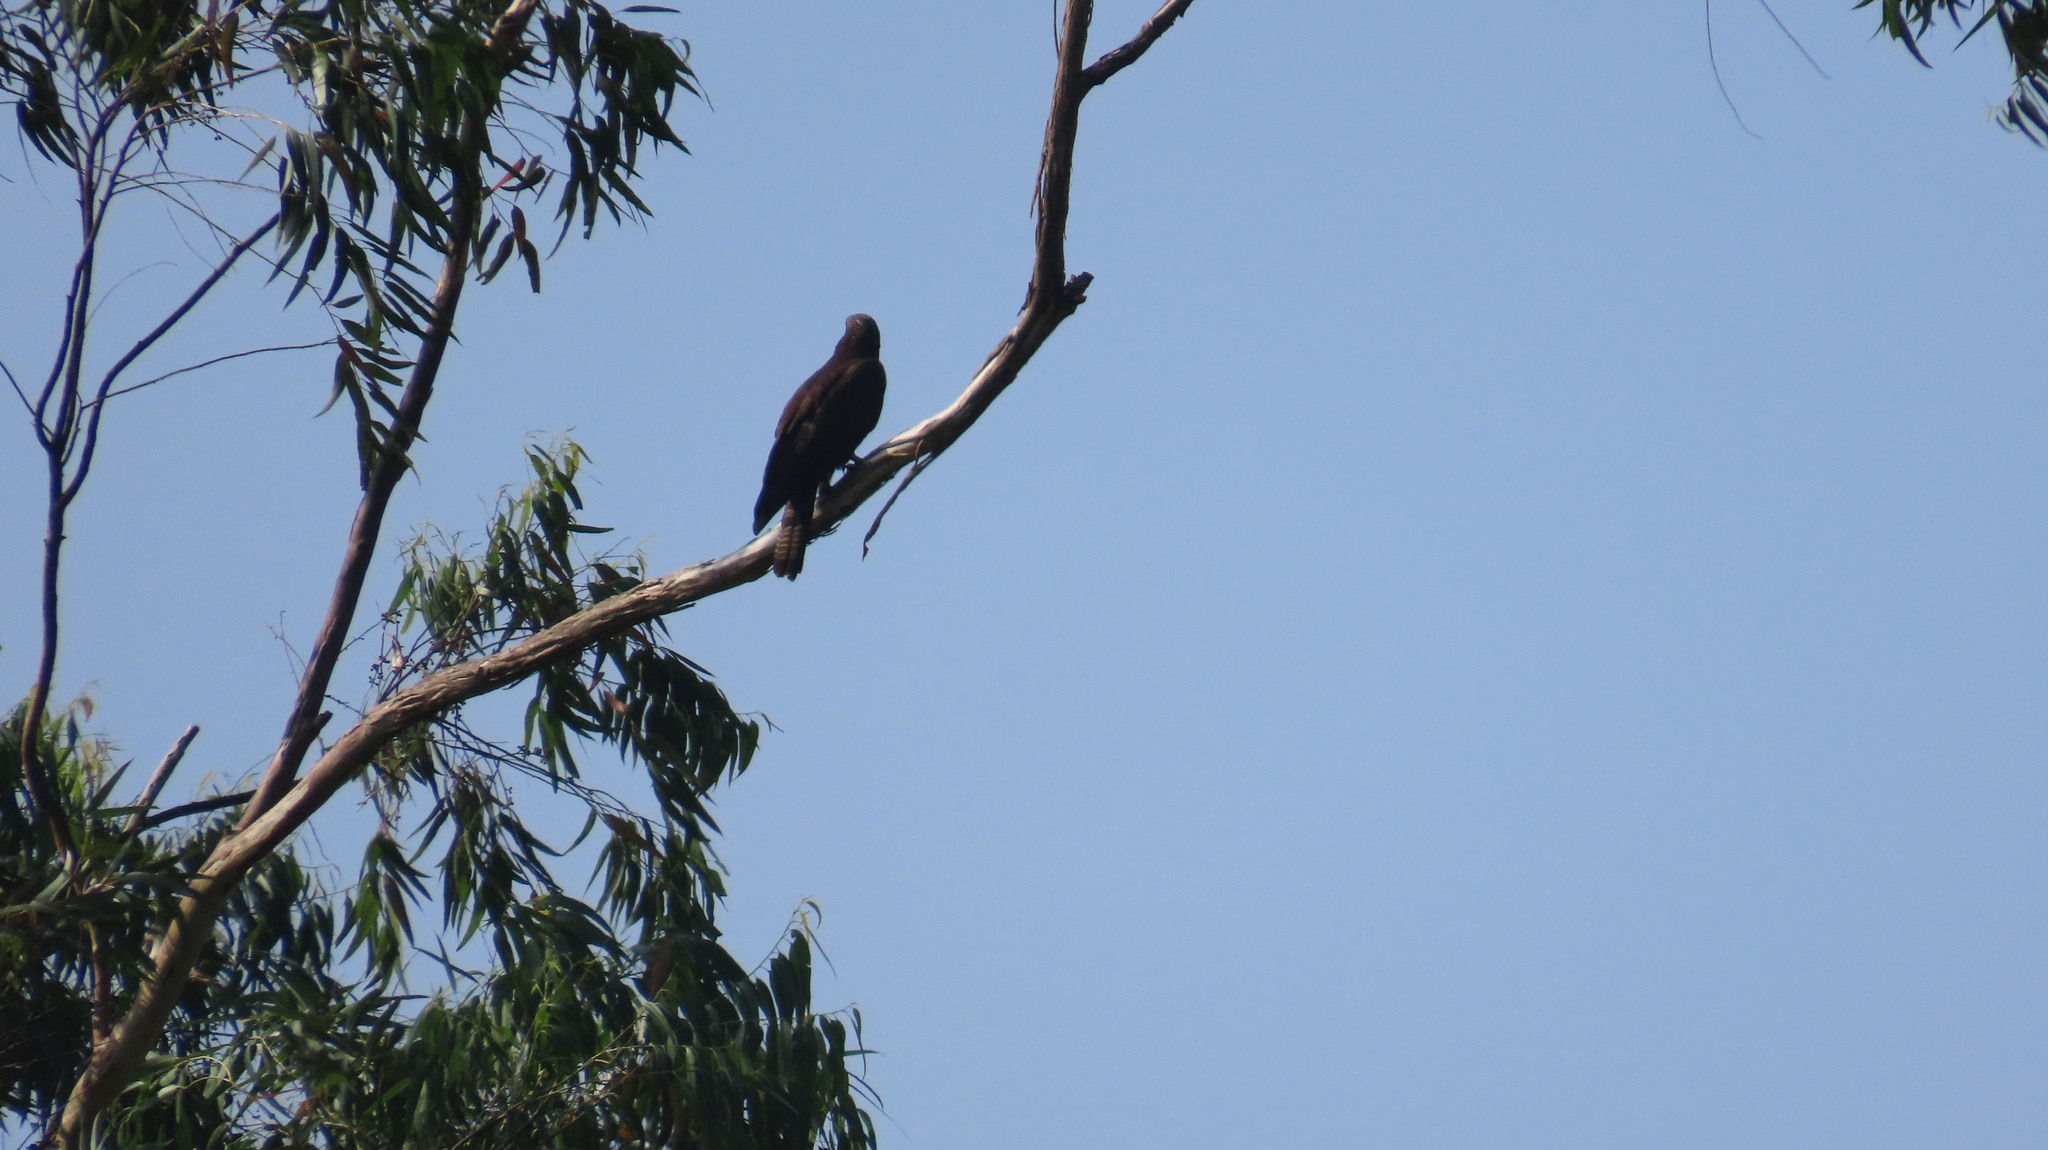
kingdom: Animalia
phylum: Chordata
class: Aves
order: Accipitriformes
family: Accipitridae
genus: Pernis
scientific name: Pernis ptilorhynchus
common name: Crested honey buzzard
